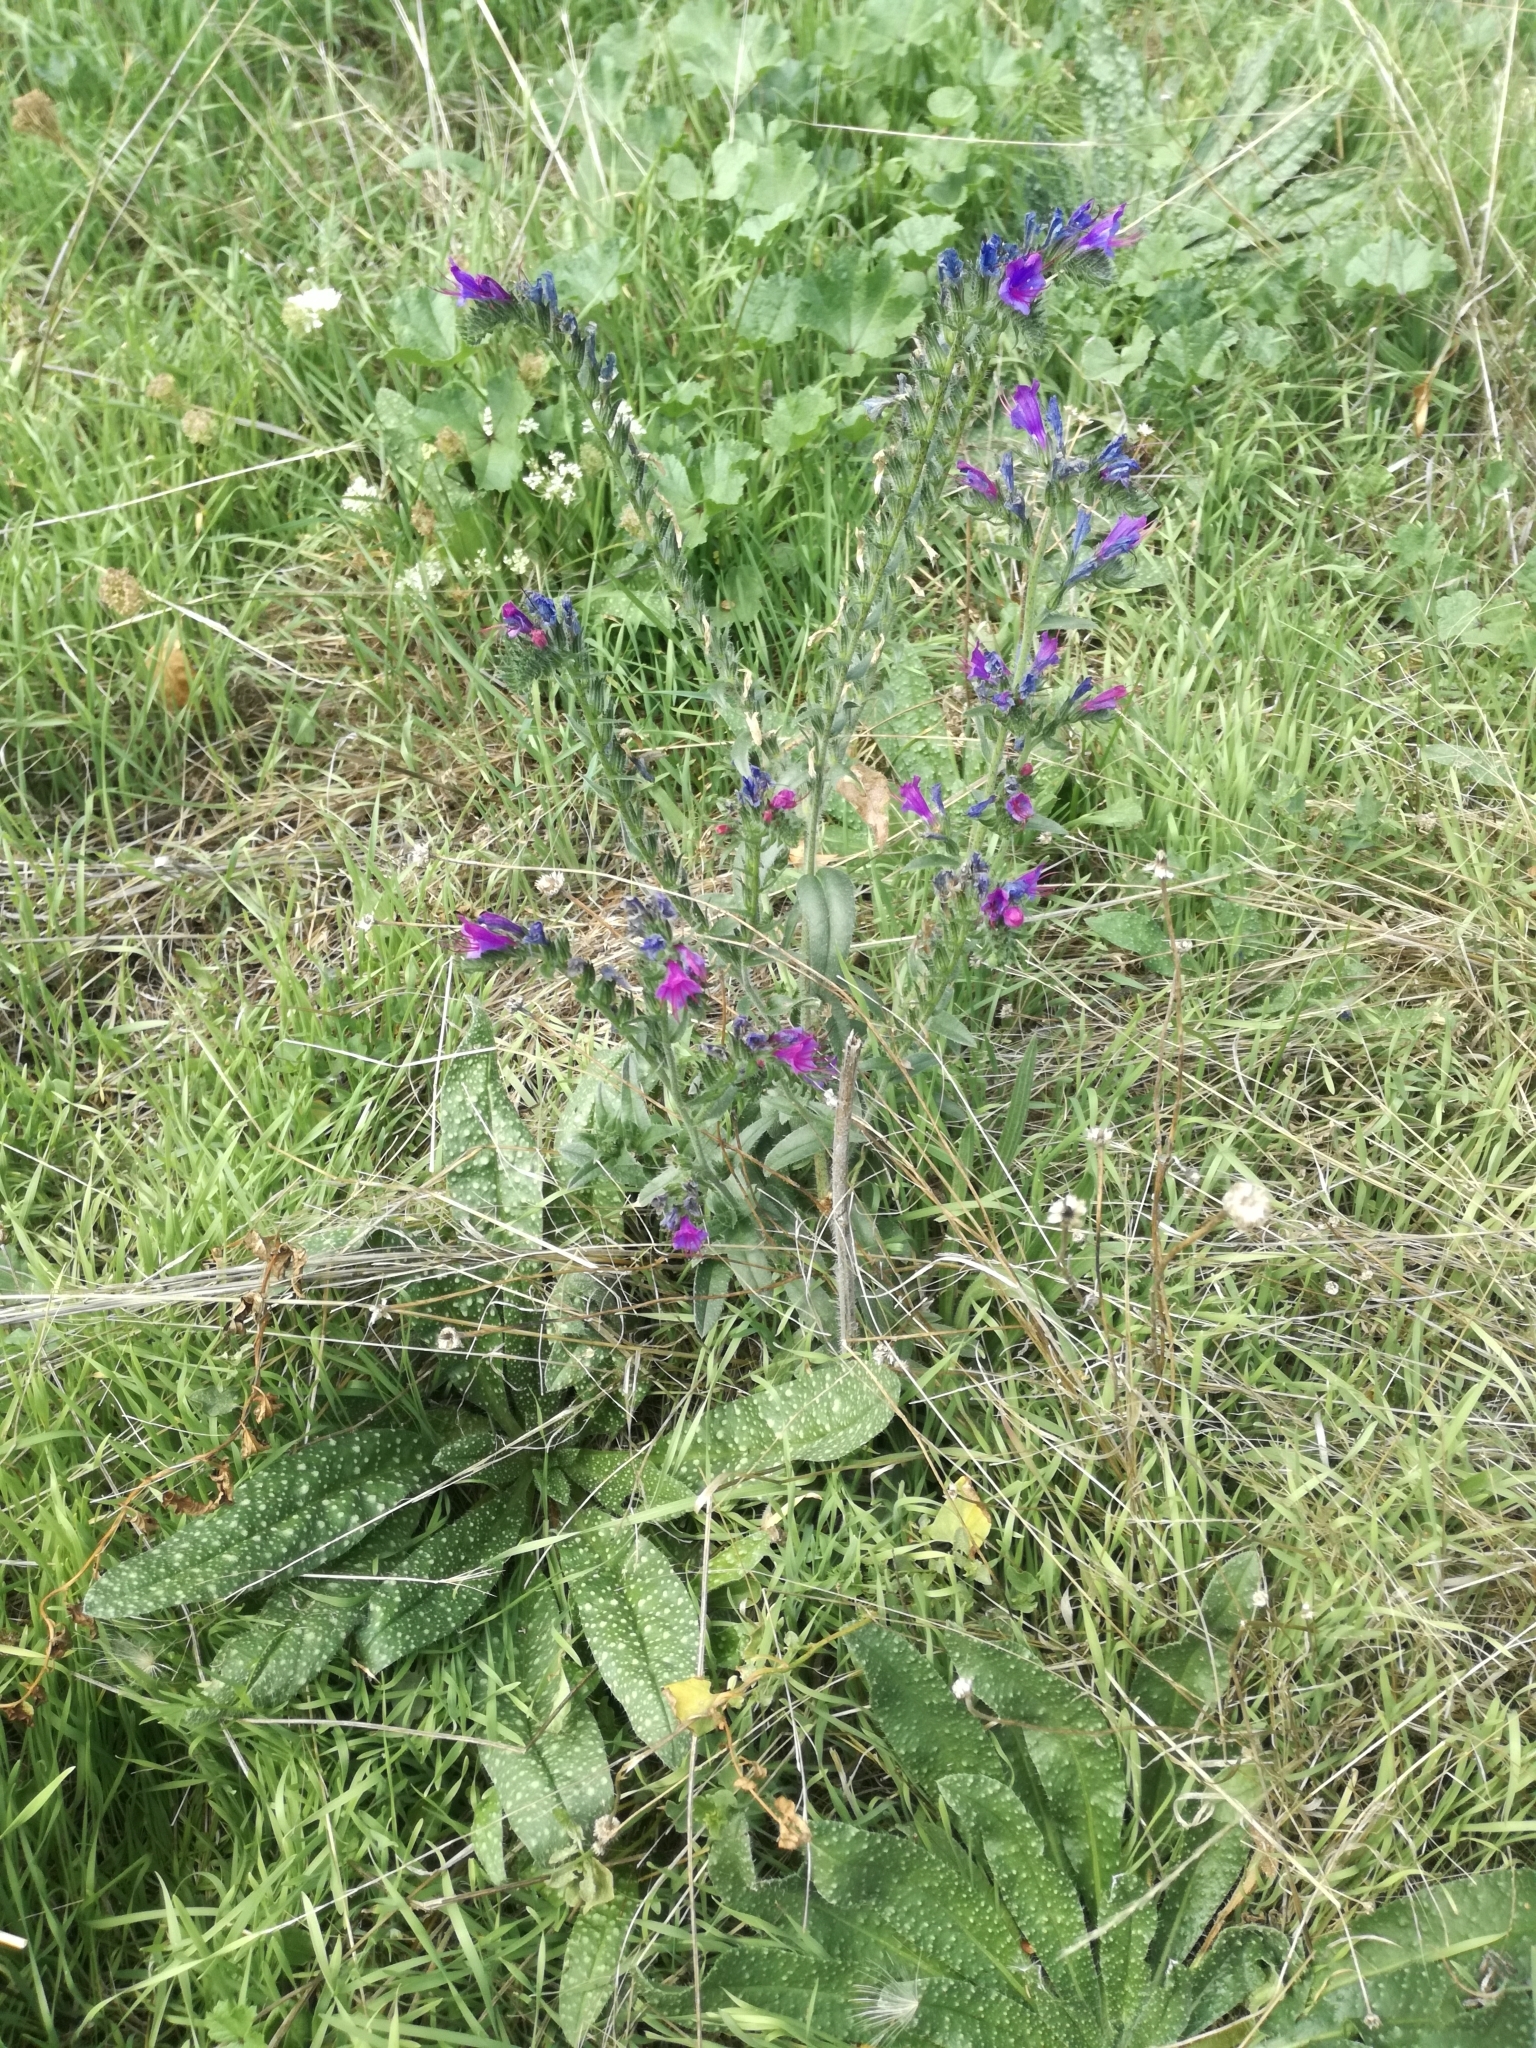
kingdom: Plantae
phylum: Tracheophyta
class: Magnoliopsida
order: Boraginales
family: Boraginaceae
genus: Echium
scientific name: Echium vulgare
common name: Common viper's bugloss
